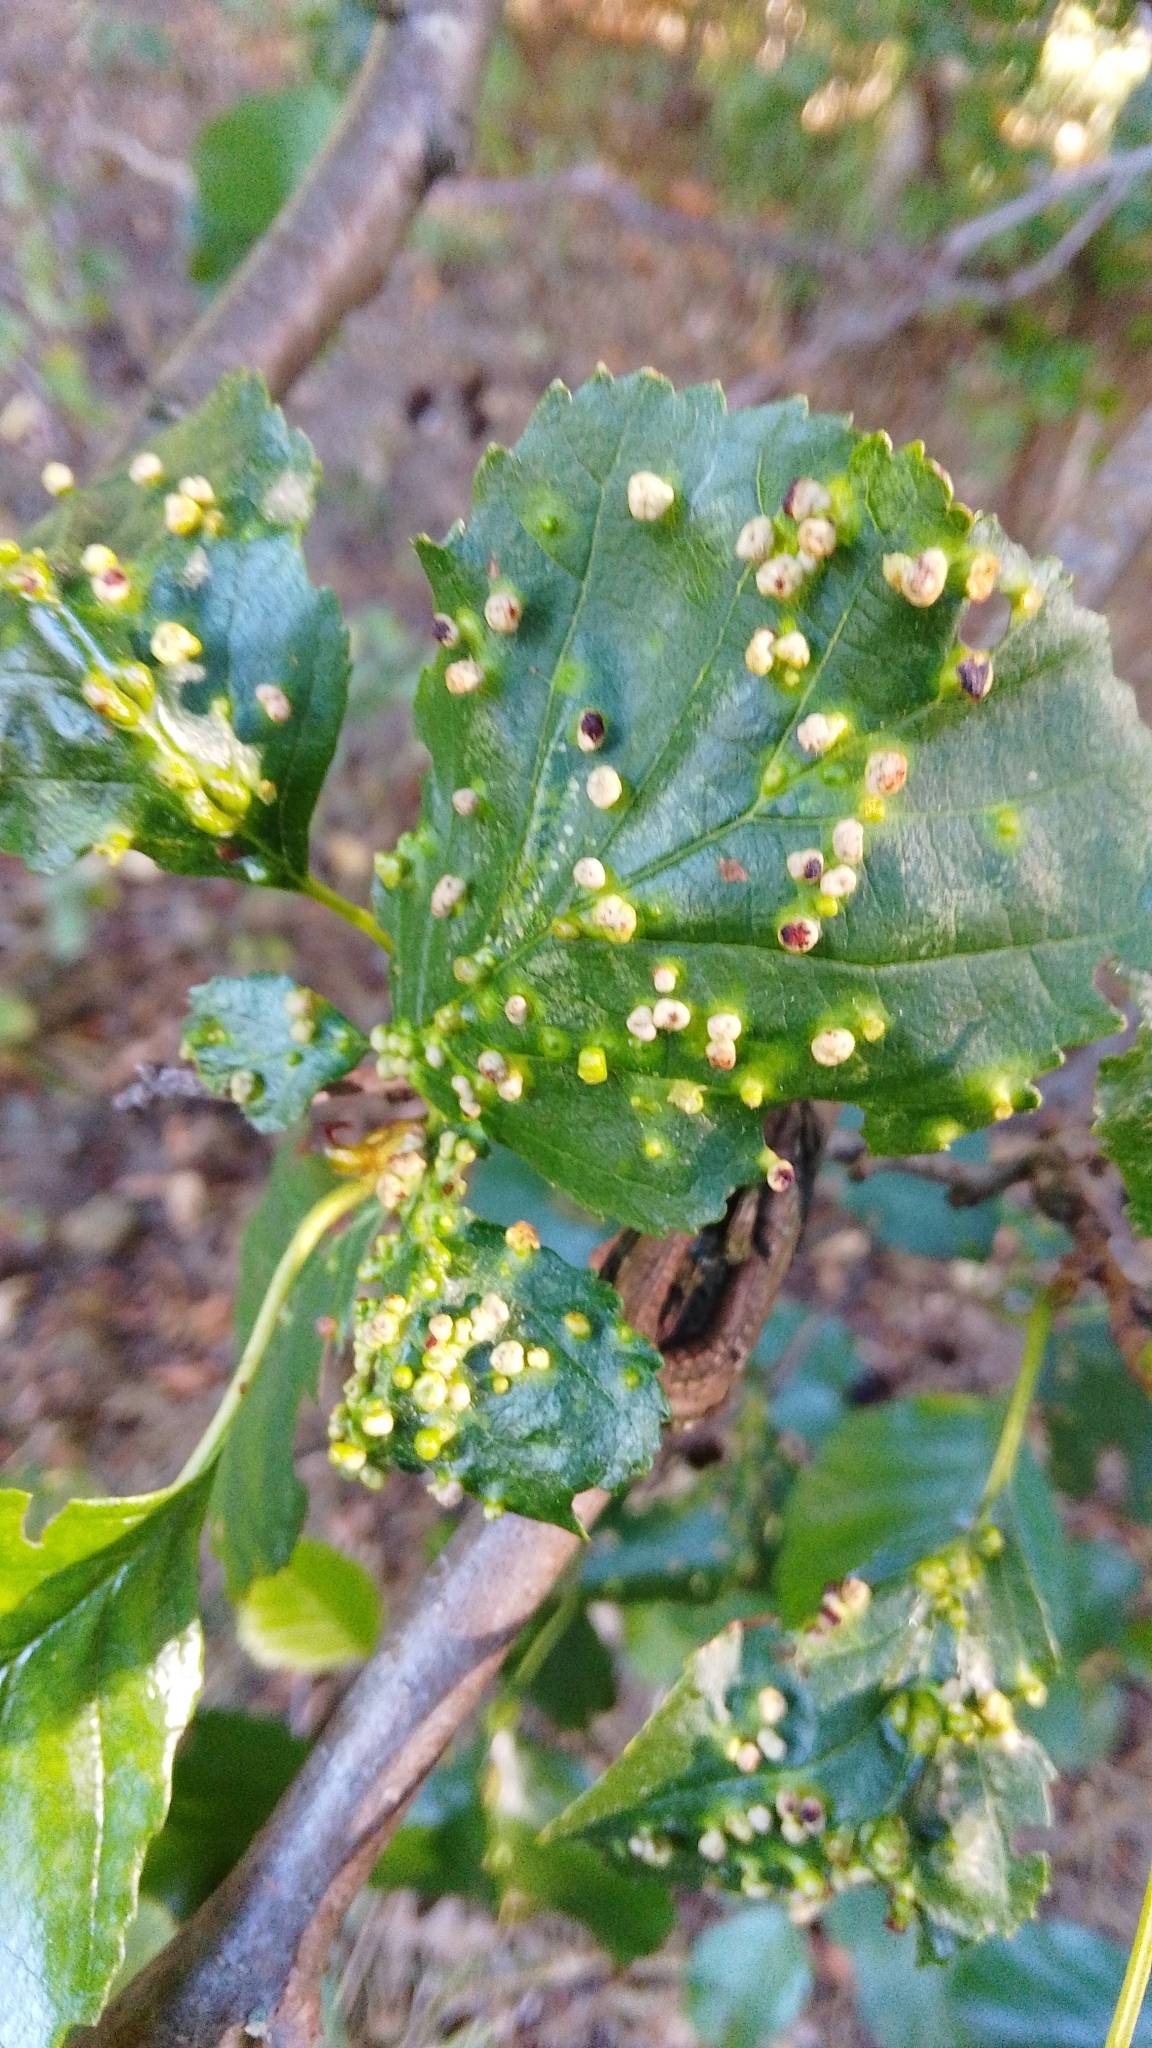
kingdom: Animalia
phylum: Arthropoda
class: Arachnida
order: Trombidiformes
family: Eriophyidae
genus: Eriophyes
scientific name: Eriophyes laevis
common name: Alder leaf gall mite
